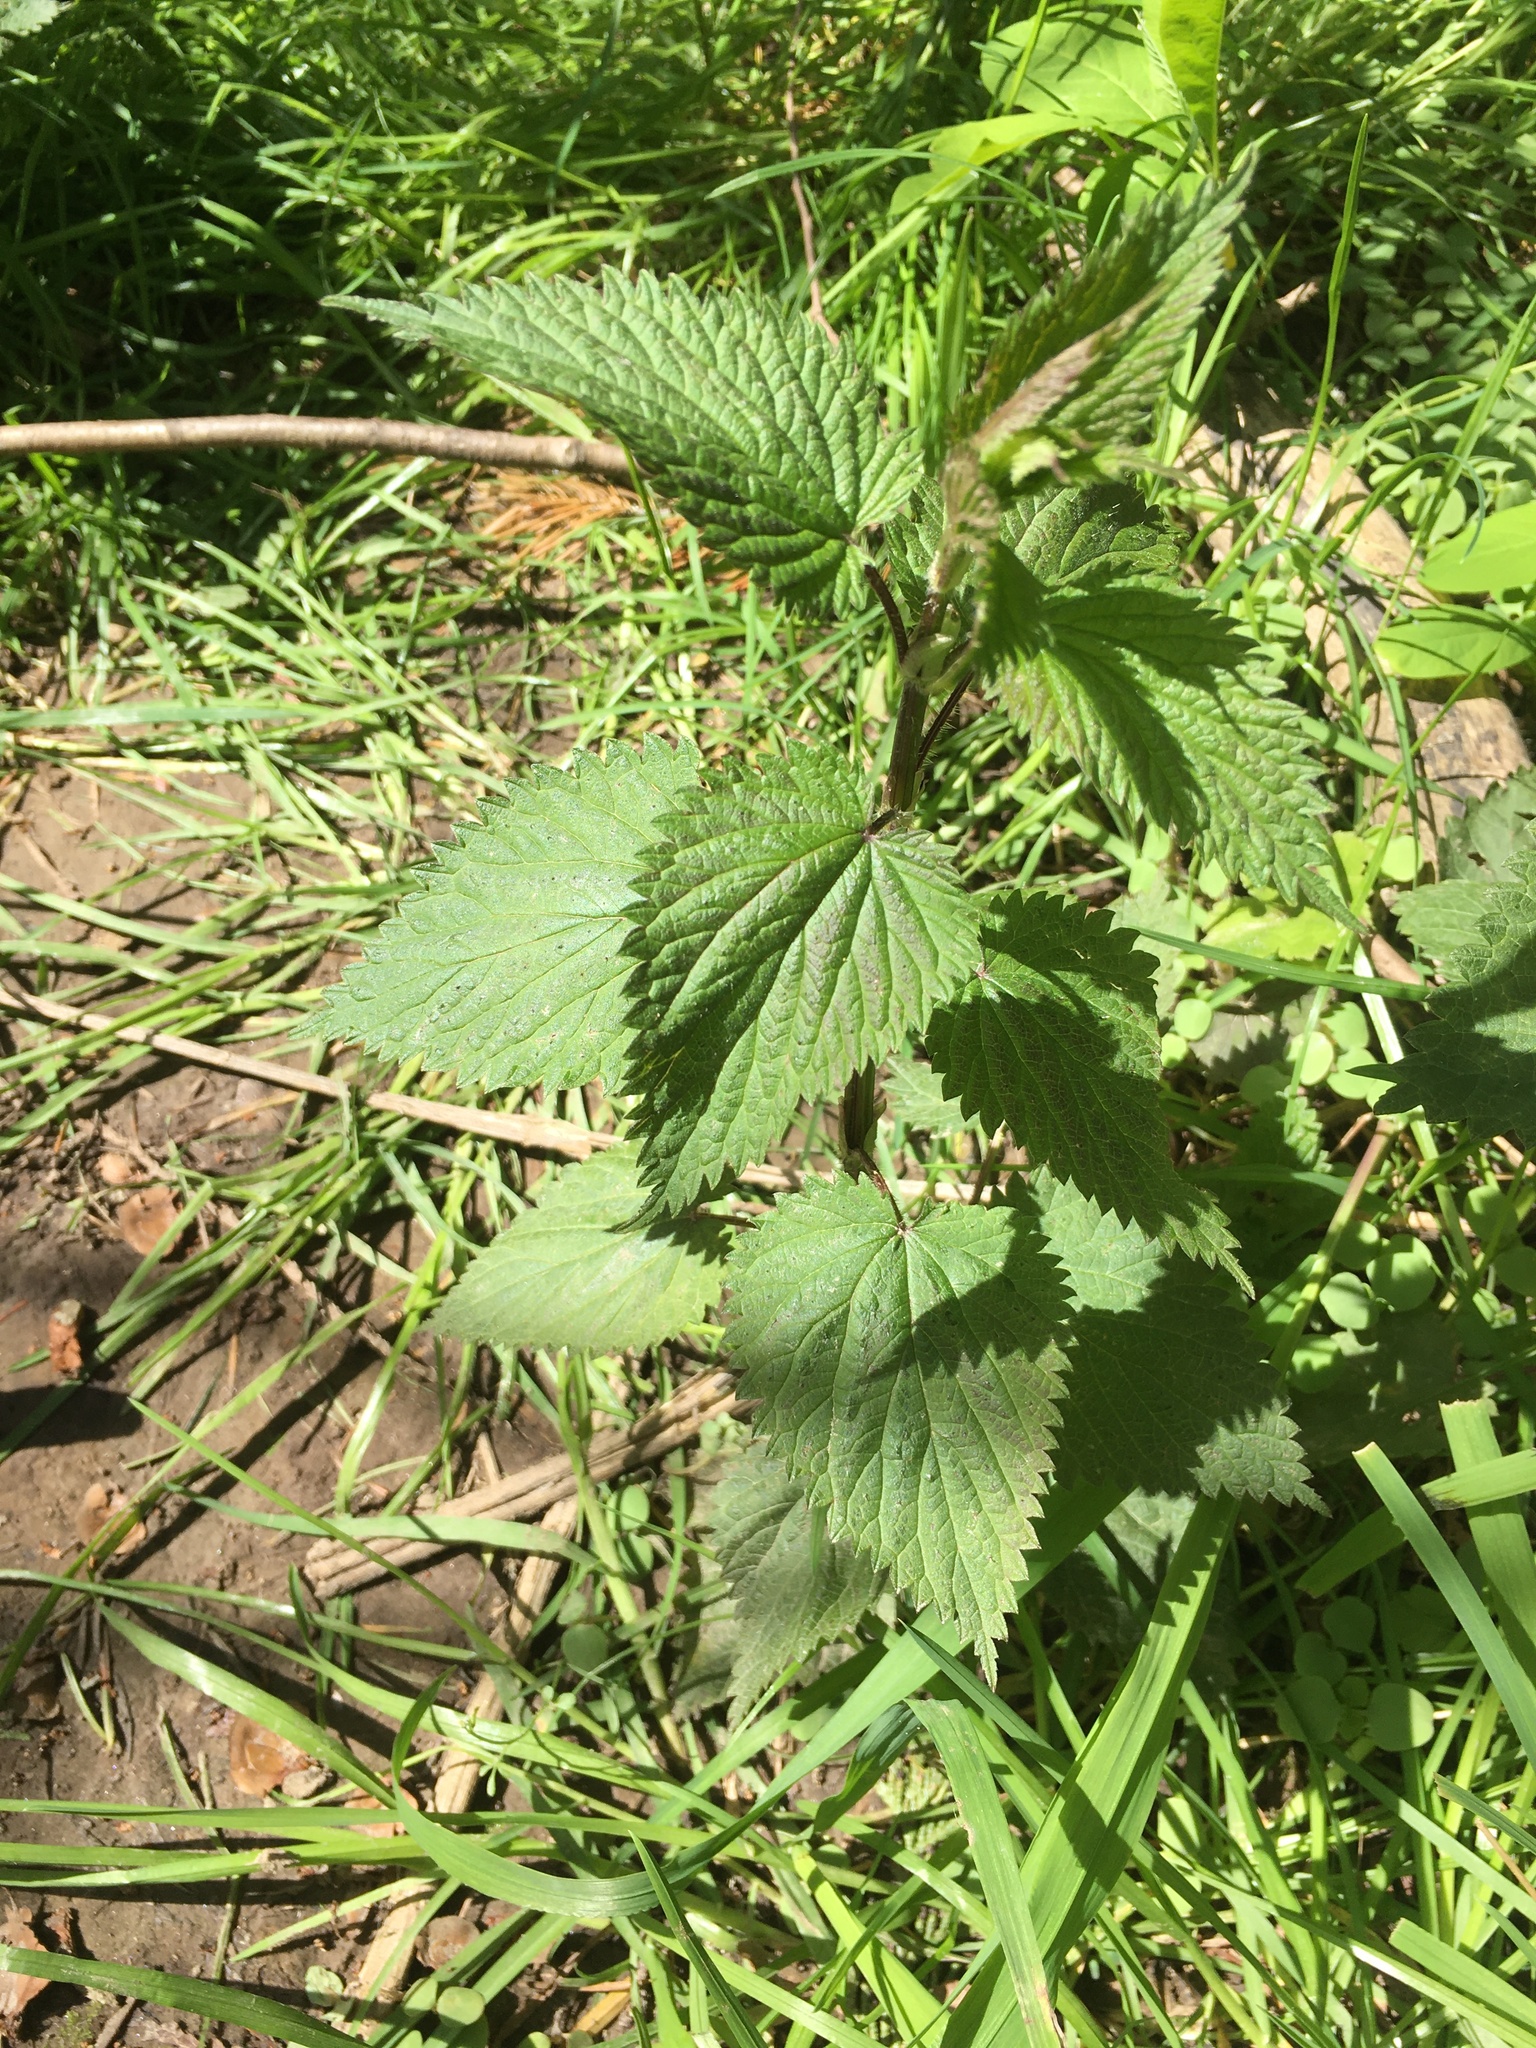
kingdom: Plantae
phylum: Tracheophyta
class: Magnoliopsida
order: Rosales
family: Urticaceae
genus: Urtica
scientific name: Urtica dioica
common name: Common nettle
